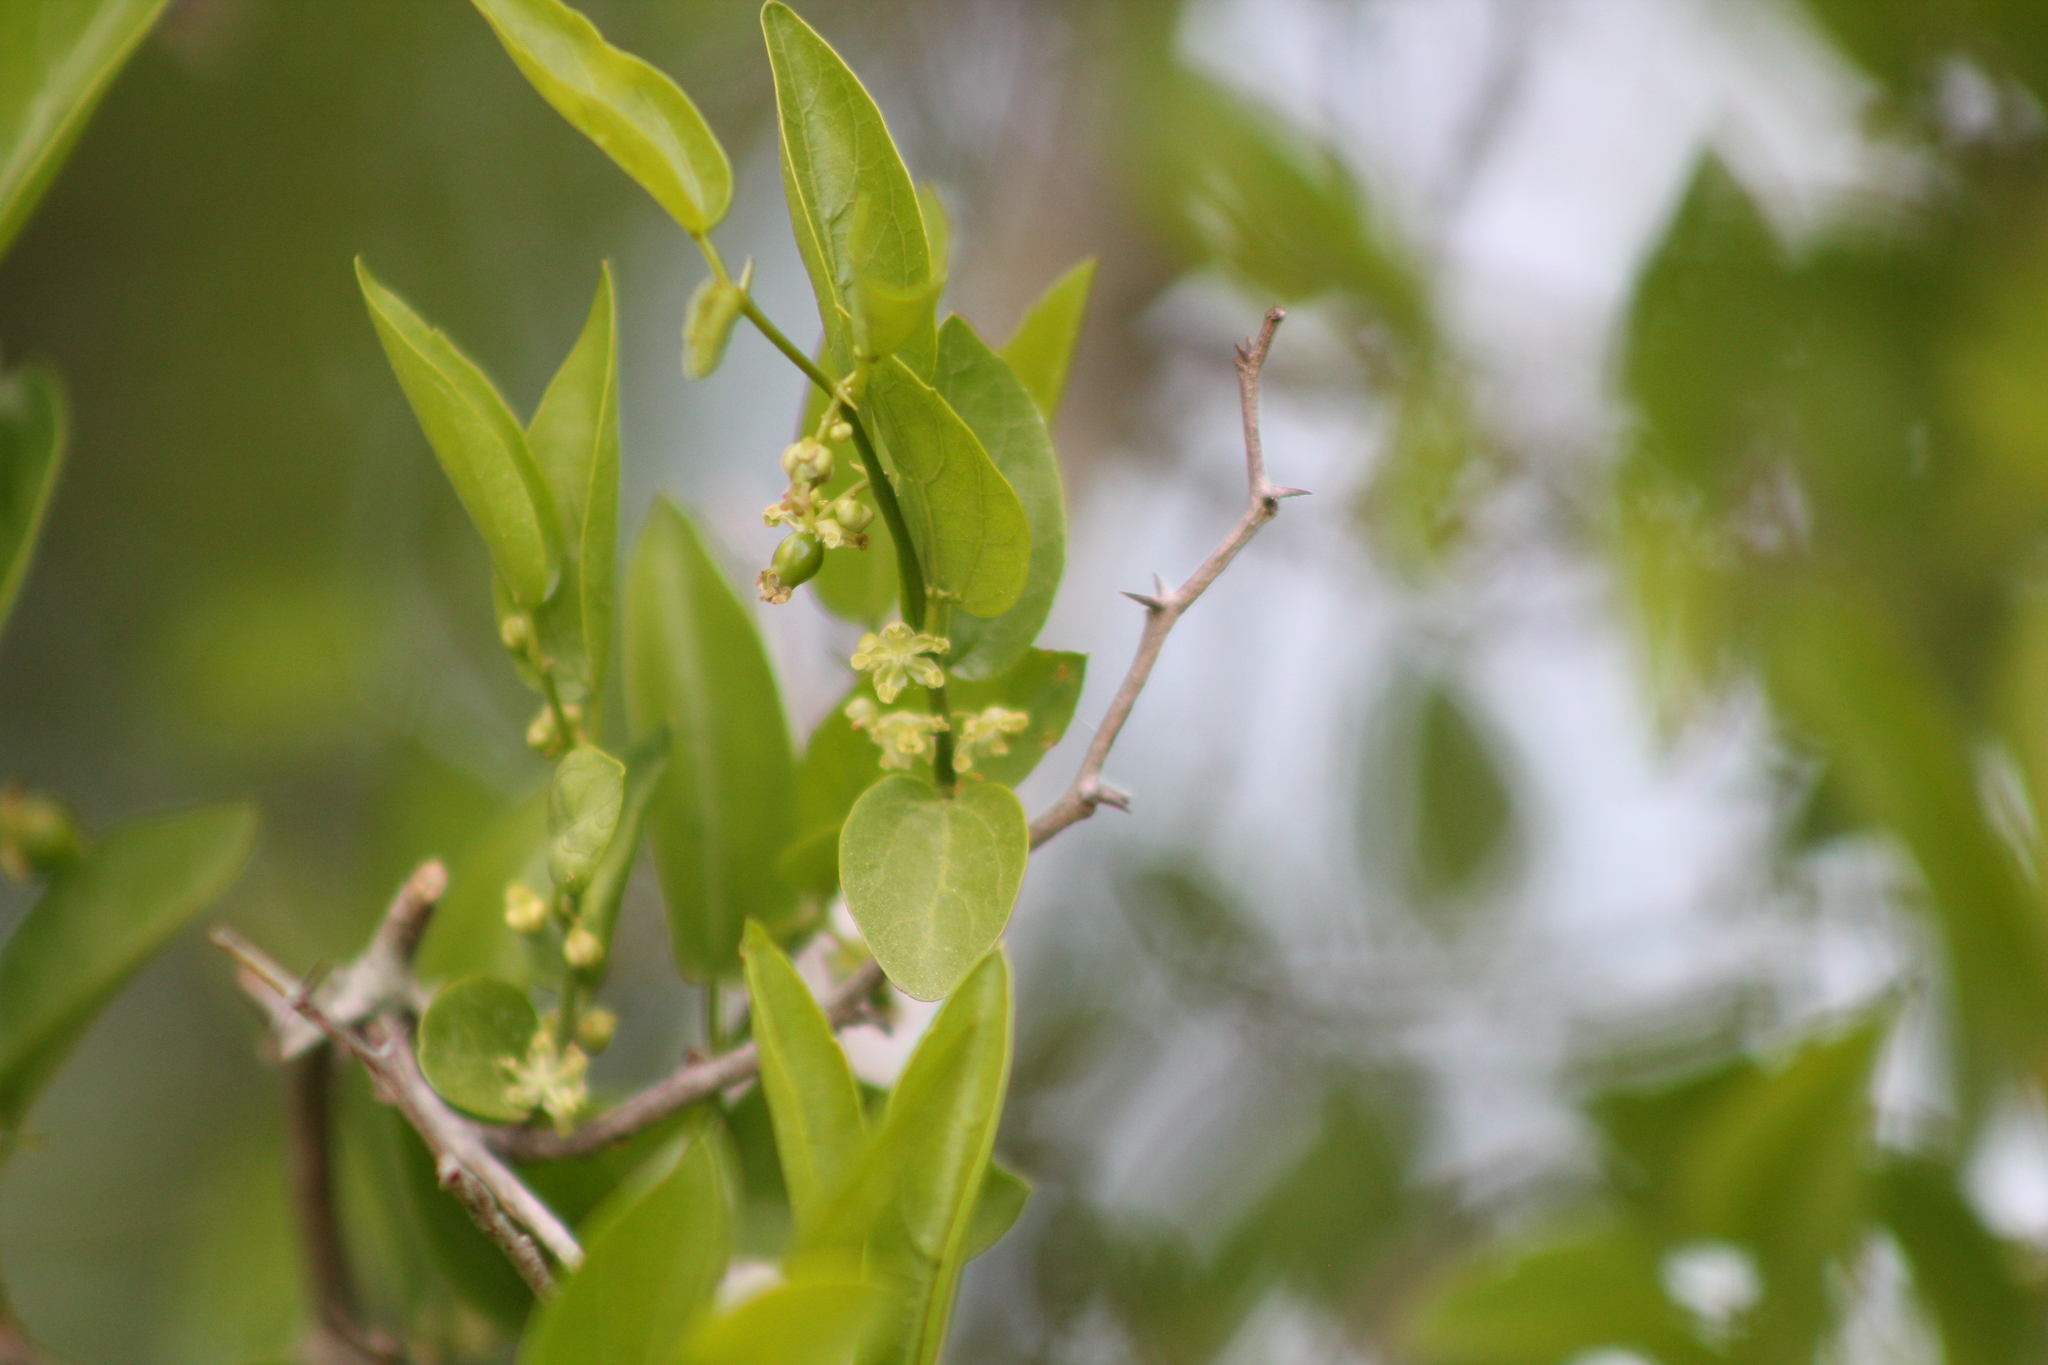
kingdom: Plantae
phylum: Tracheophyta
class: Magnoliopsida
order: Rosales
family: Cannabaceae
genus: Celtis
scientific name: Celtis tala
